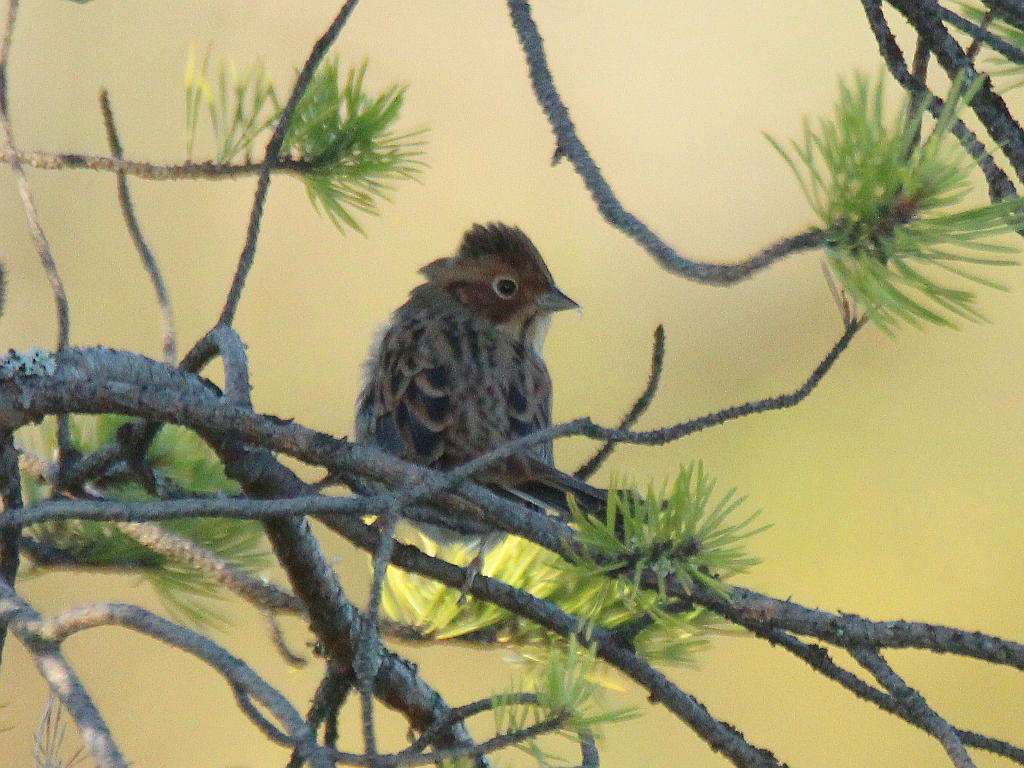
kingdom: Animalia
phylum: Chordata
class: Aves
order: Passeriformes
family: Emberizidae
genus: Emberiza
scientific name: Emberiza pusilla
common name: Little bunting
